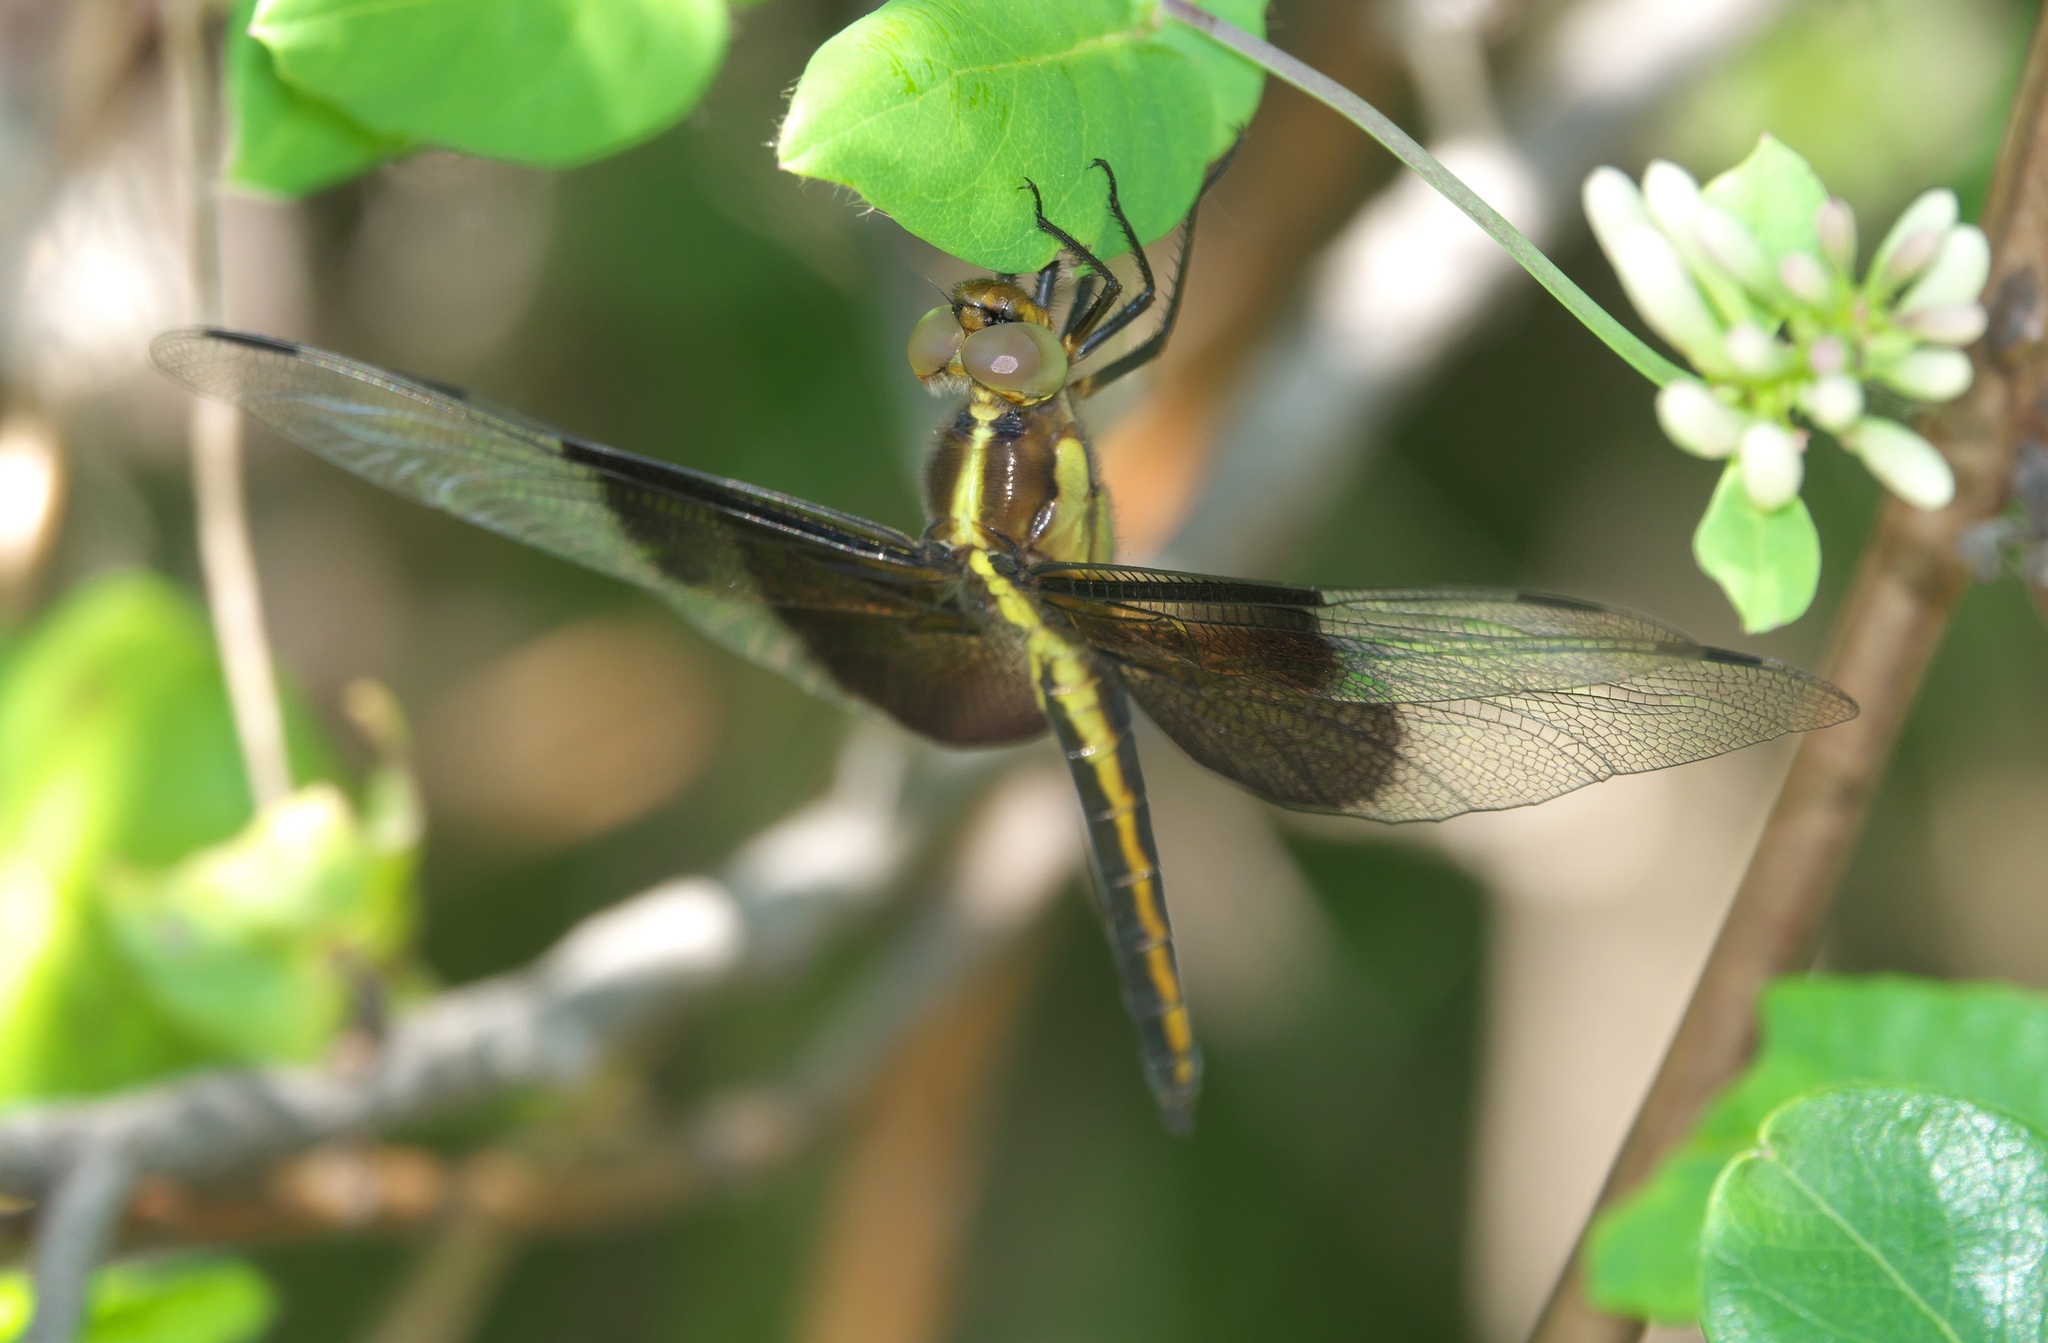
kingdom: Animalia
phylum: Arthropoda
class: Insecta
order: Odonata
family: Libellulidae
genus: Libellula
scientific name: Libellula luctuosa
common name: Widow skimmer
